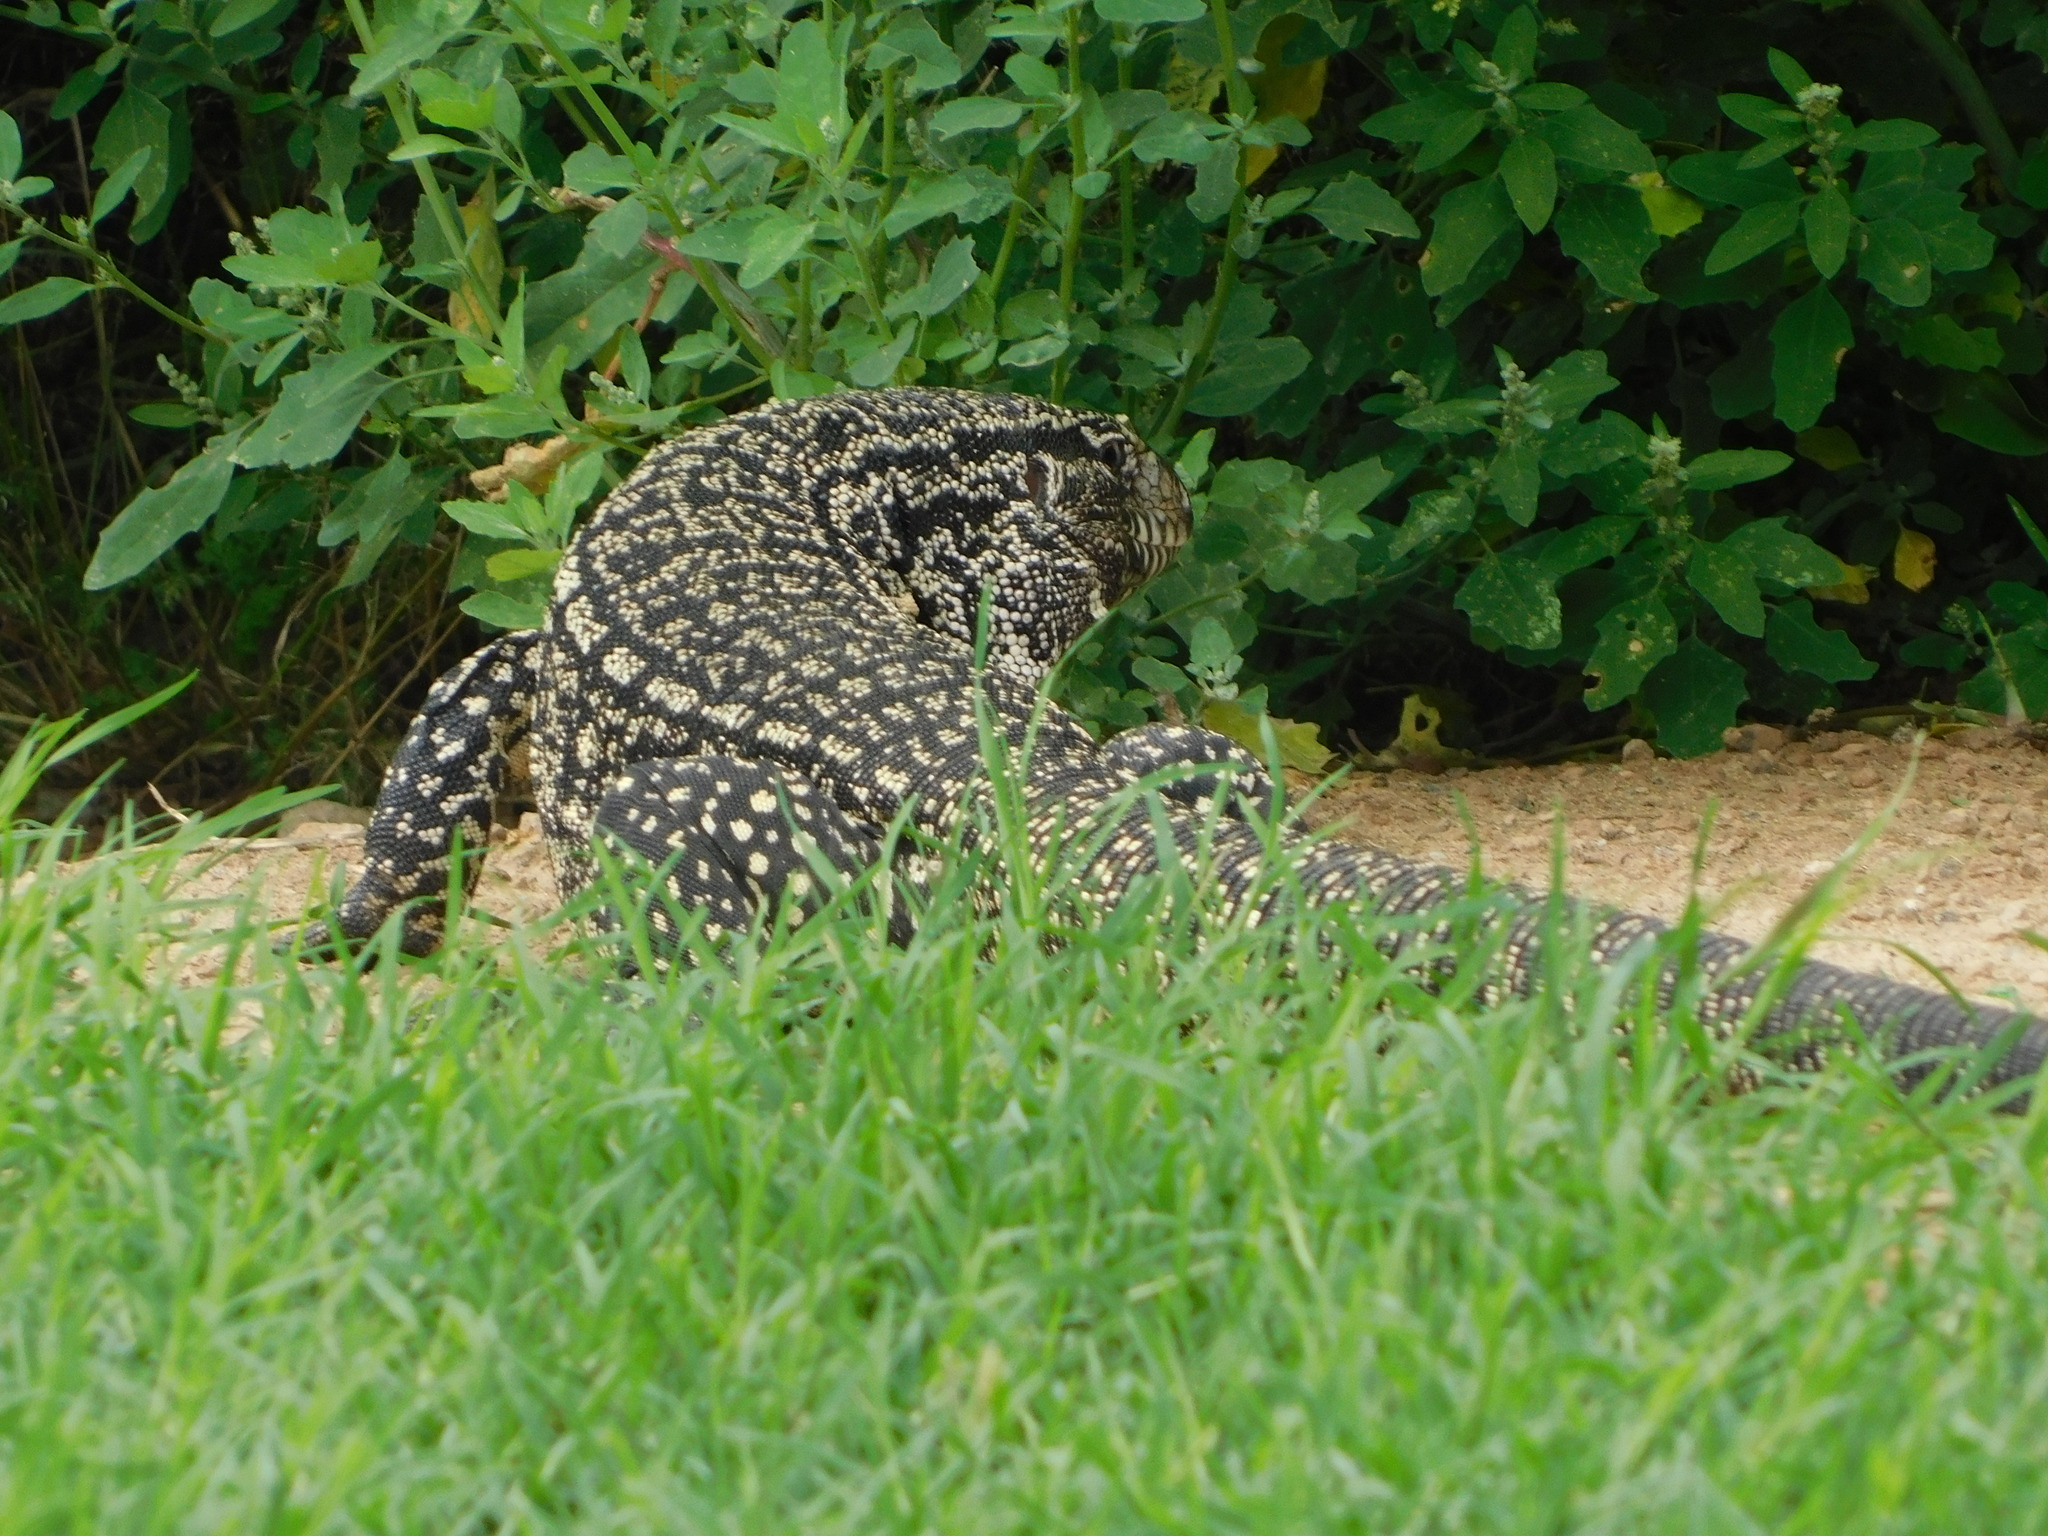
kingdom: Animalia
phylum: Chordata
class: Squamata
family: Teiidae
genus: Salvator
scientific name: Salvator merianae
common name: Argentine black and white tegu
